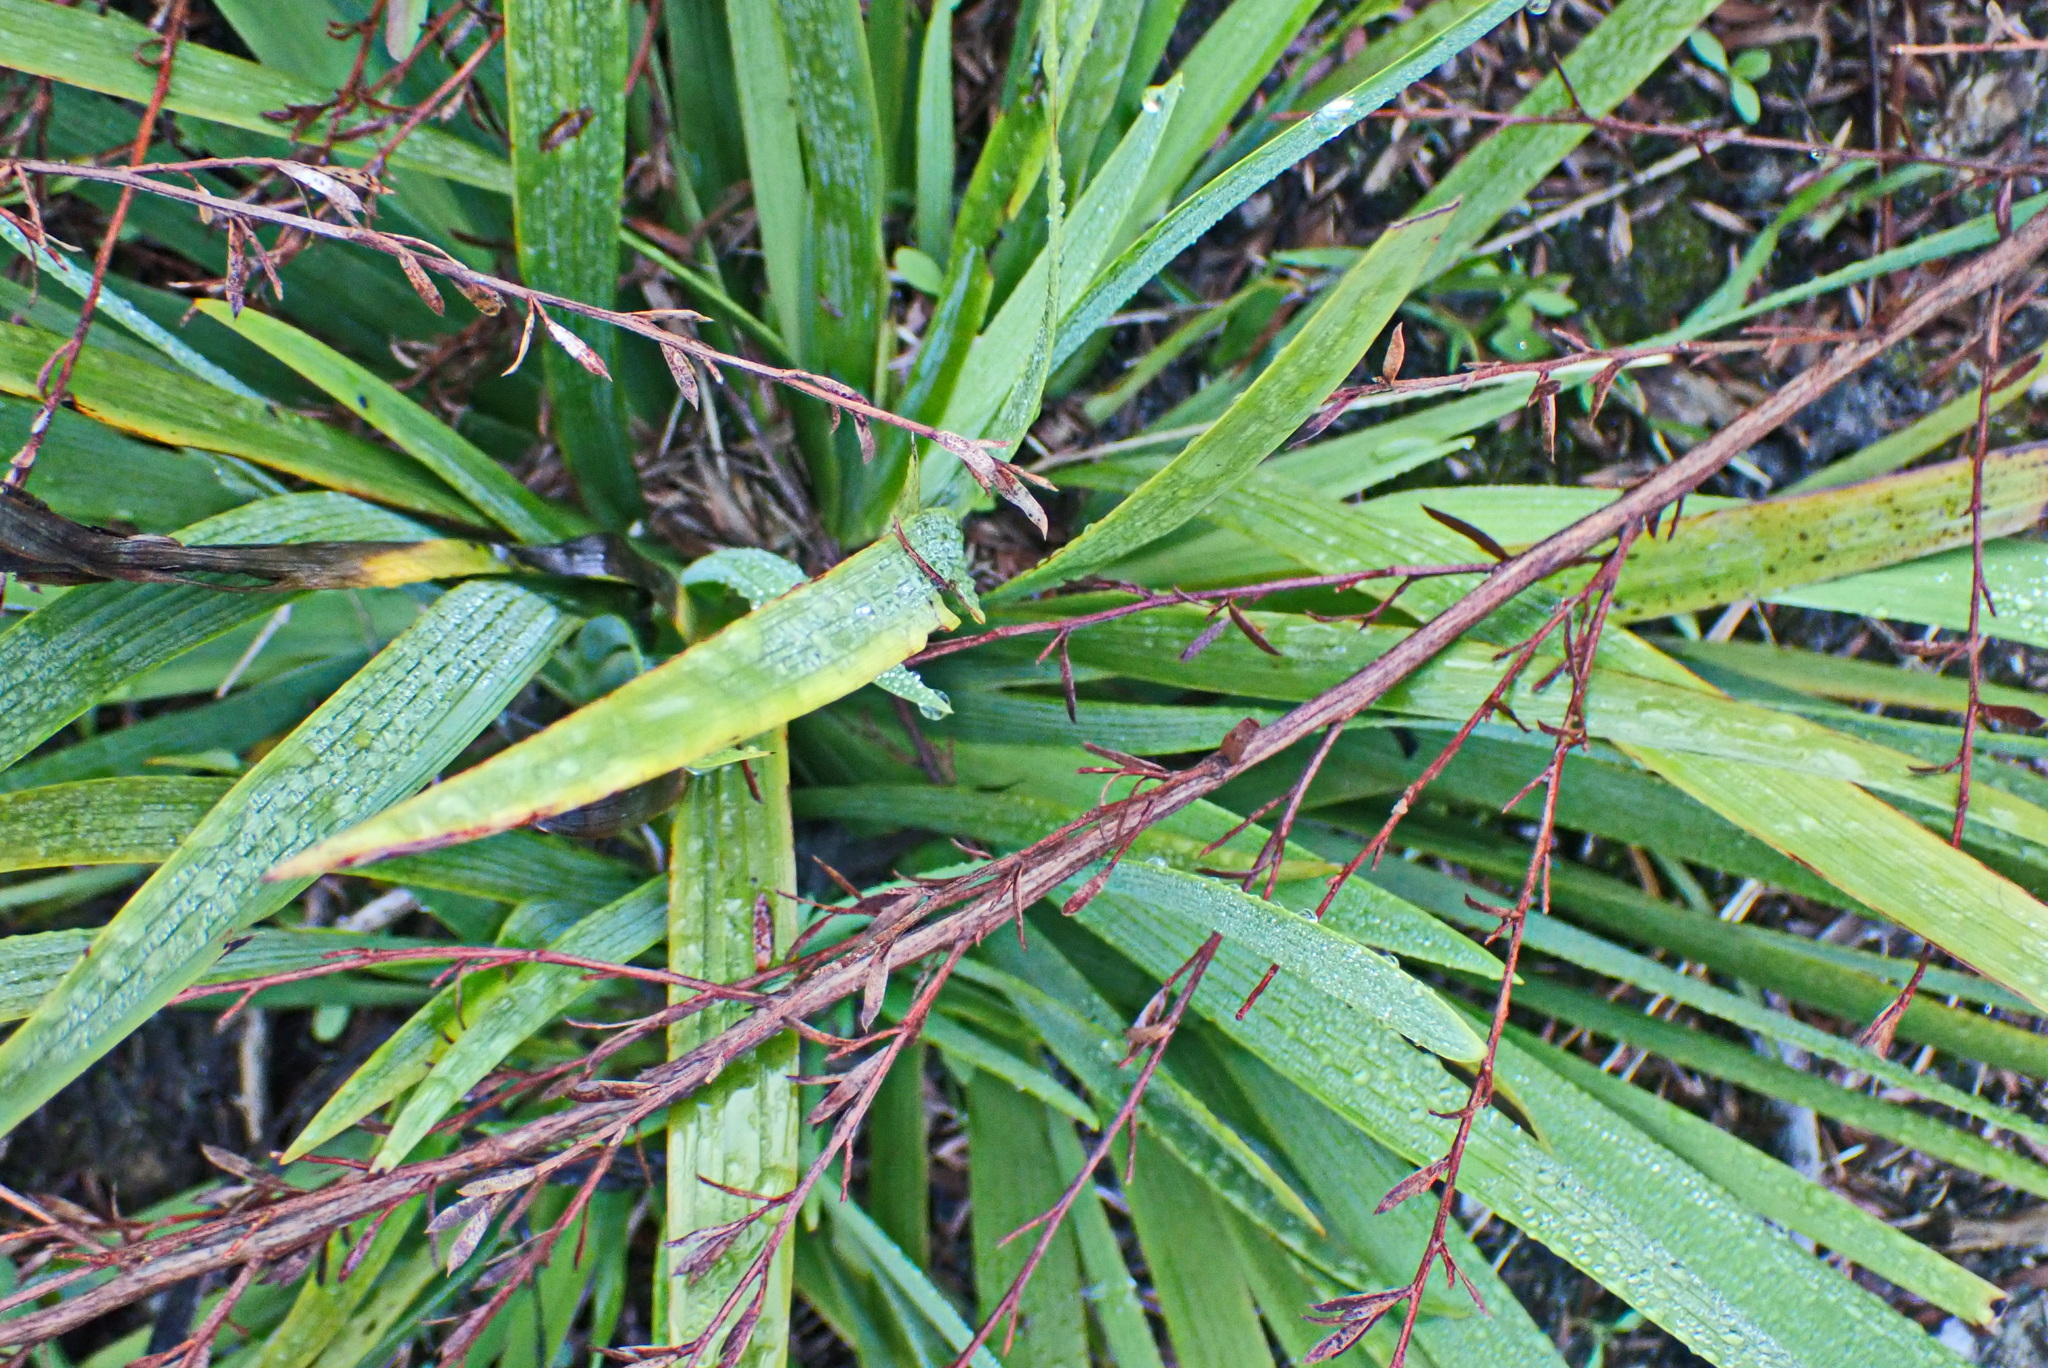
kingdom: Plantae
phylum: Tracheophyta
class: Liliopsida
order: Asparagales
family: Iridaceae
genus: Aristea
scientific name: Aristea ecklonii
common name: Blue corn-lily
